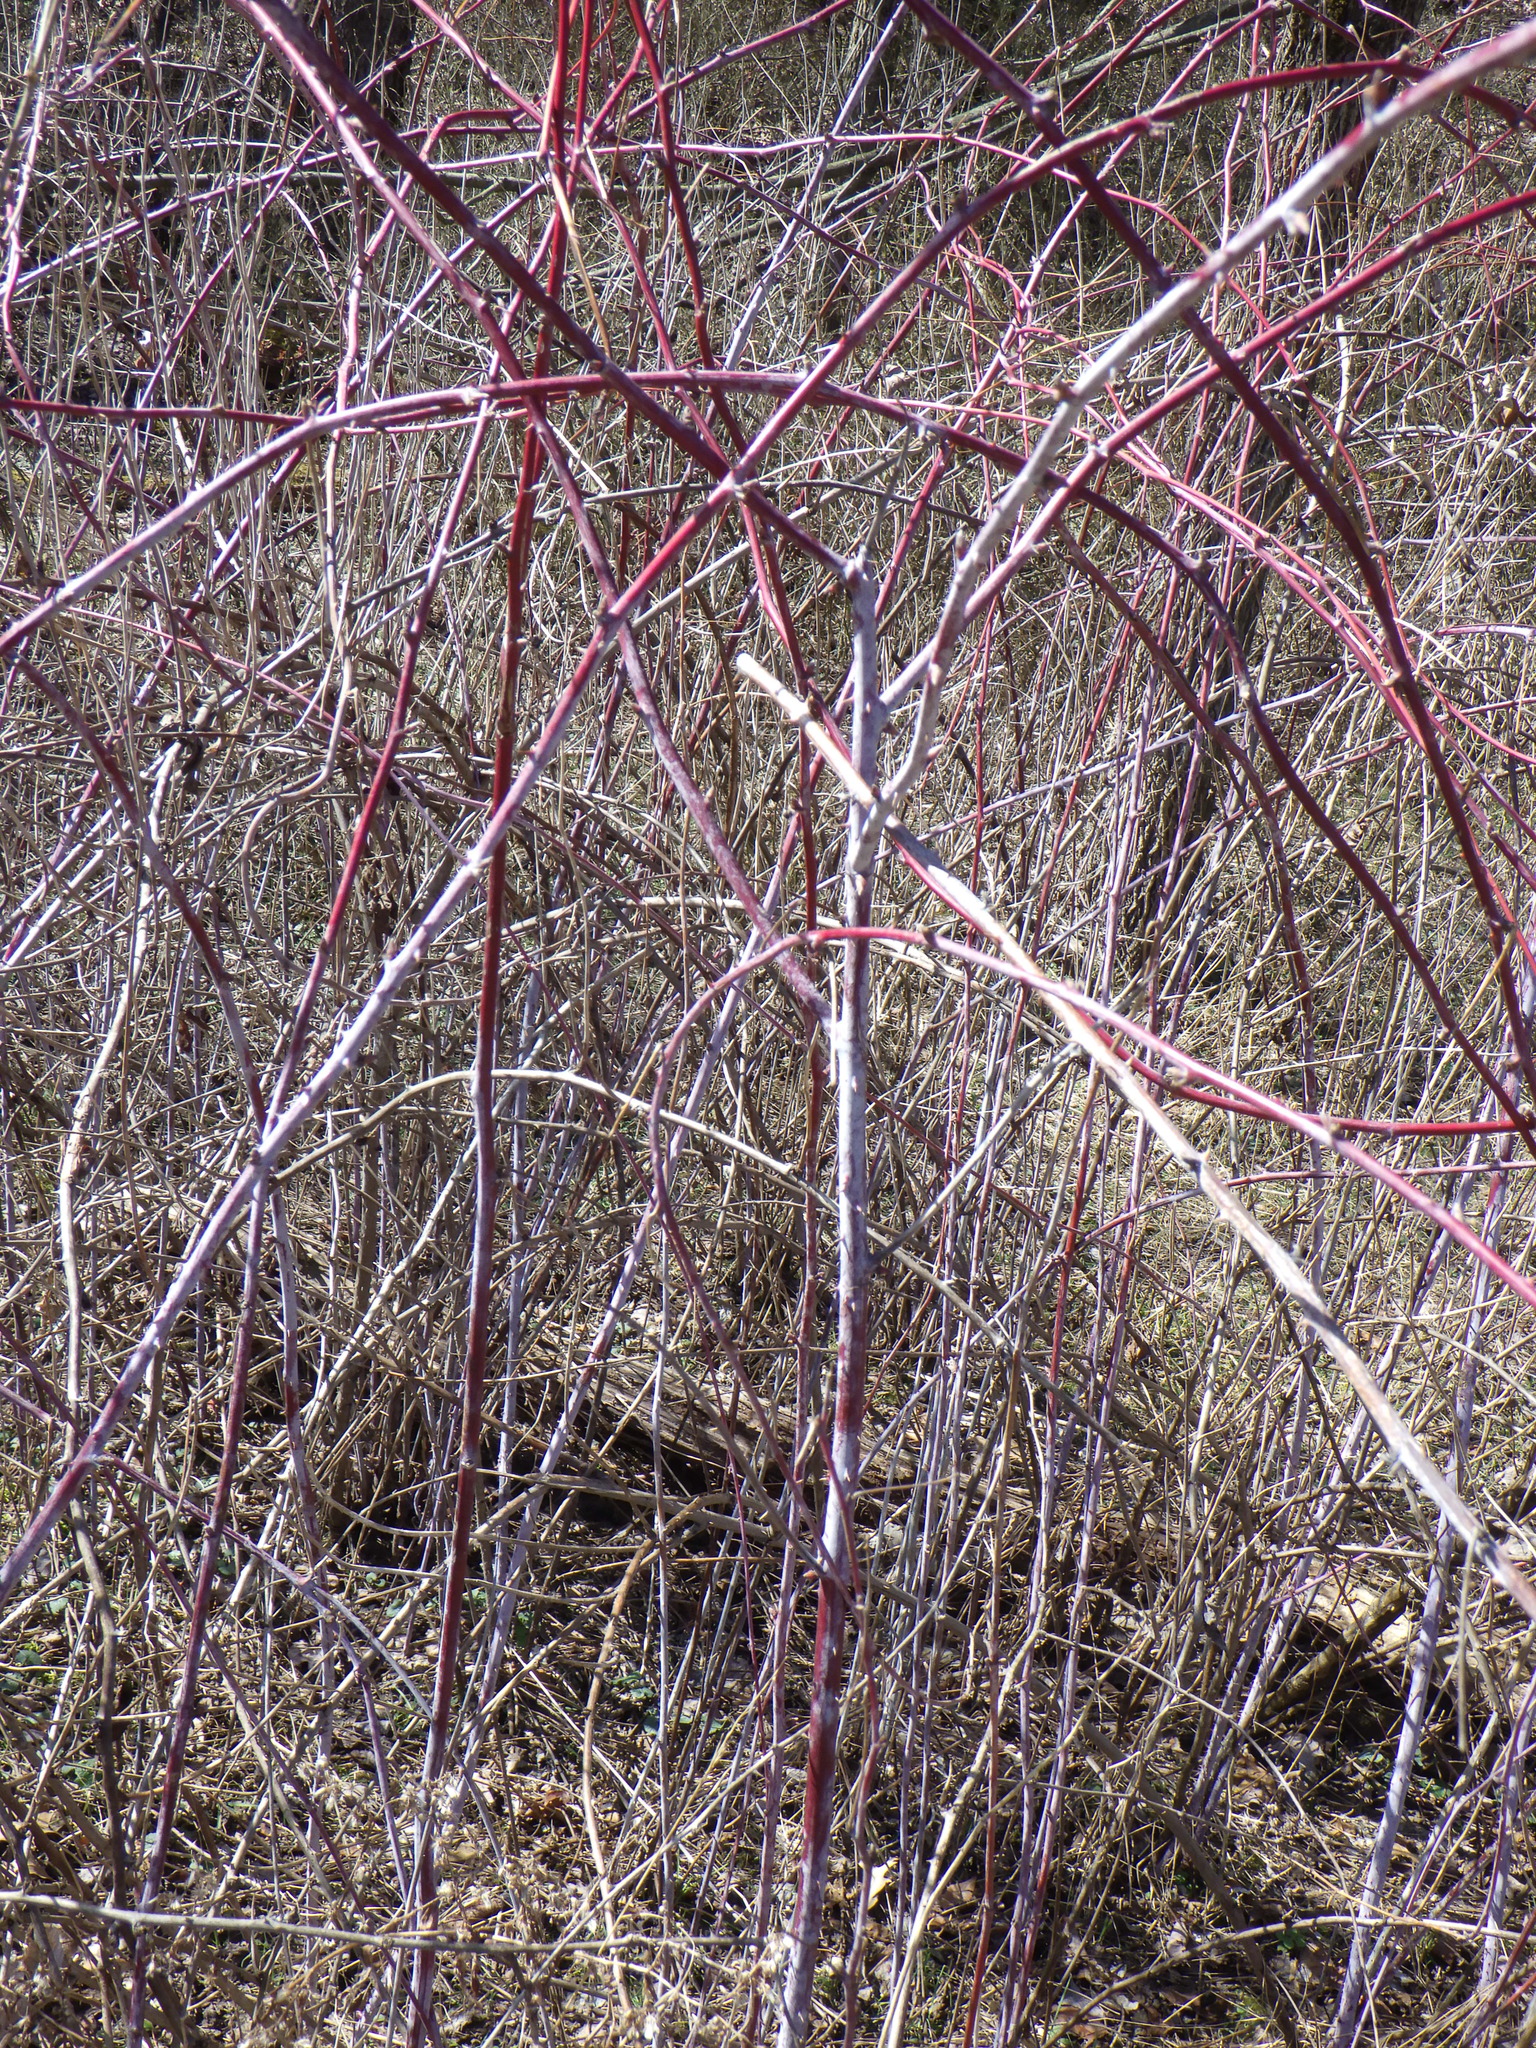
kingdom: Plantae
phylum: Tracheophyta
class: Magnoliopsida
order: Rosales
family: Rosaceae
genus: Rubus
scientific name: Rubus occidentalis
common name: Black raspberry
